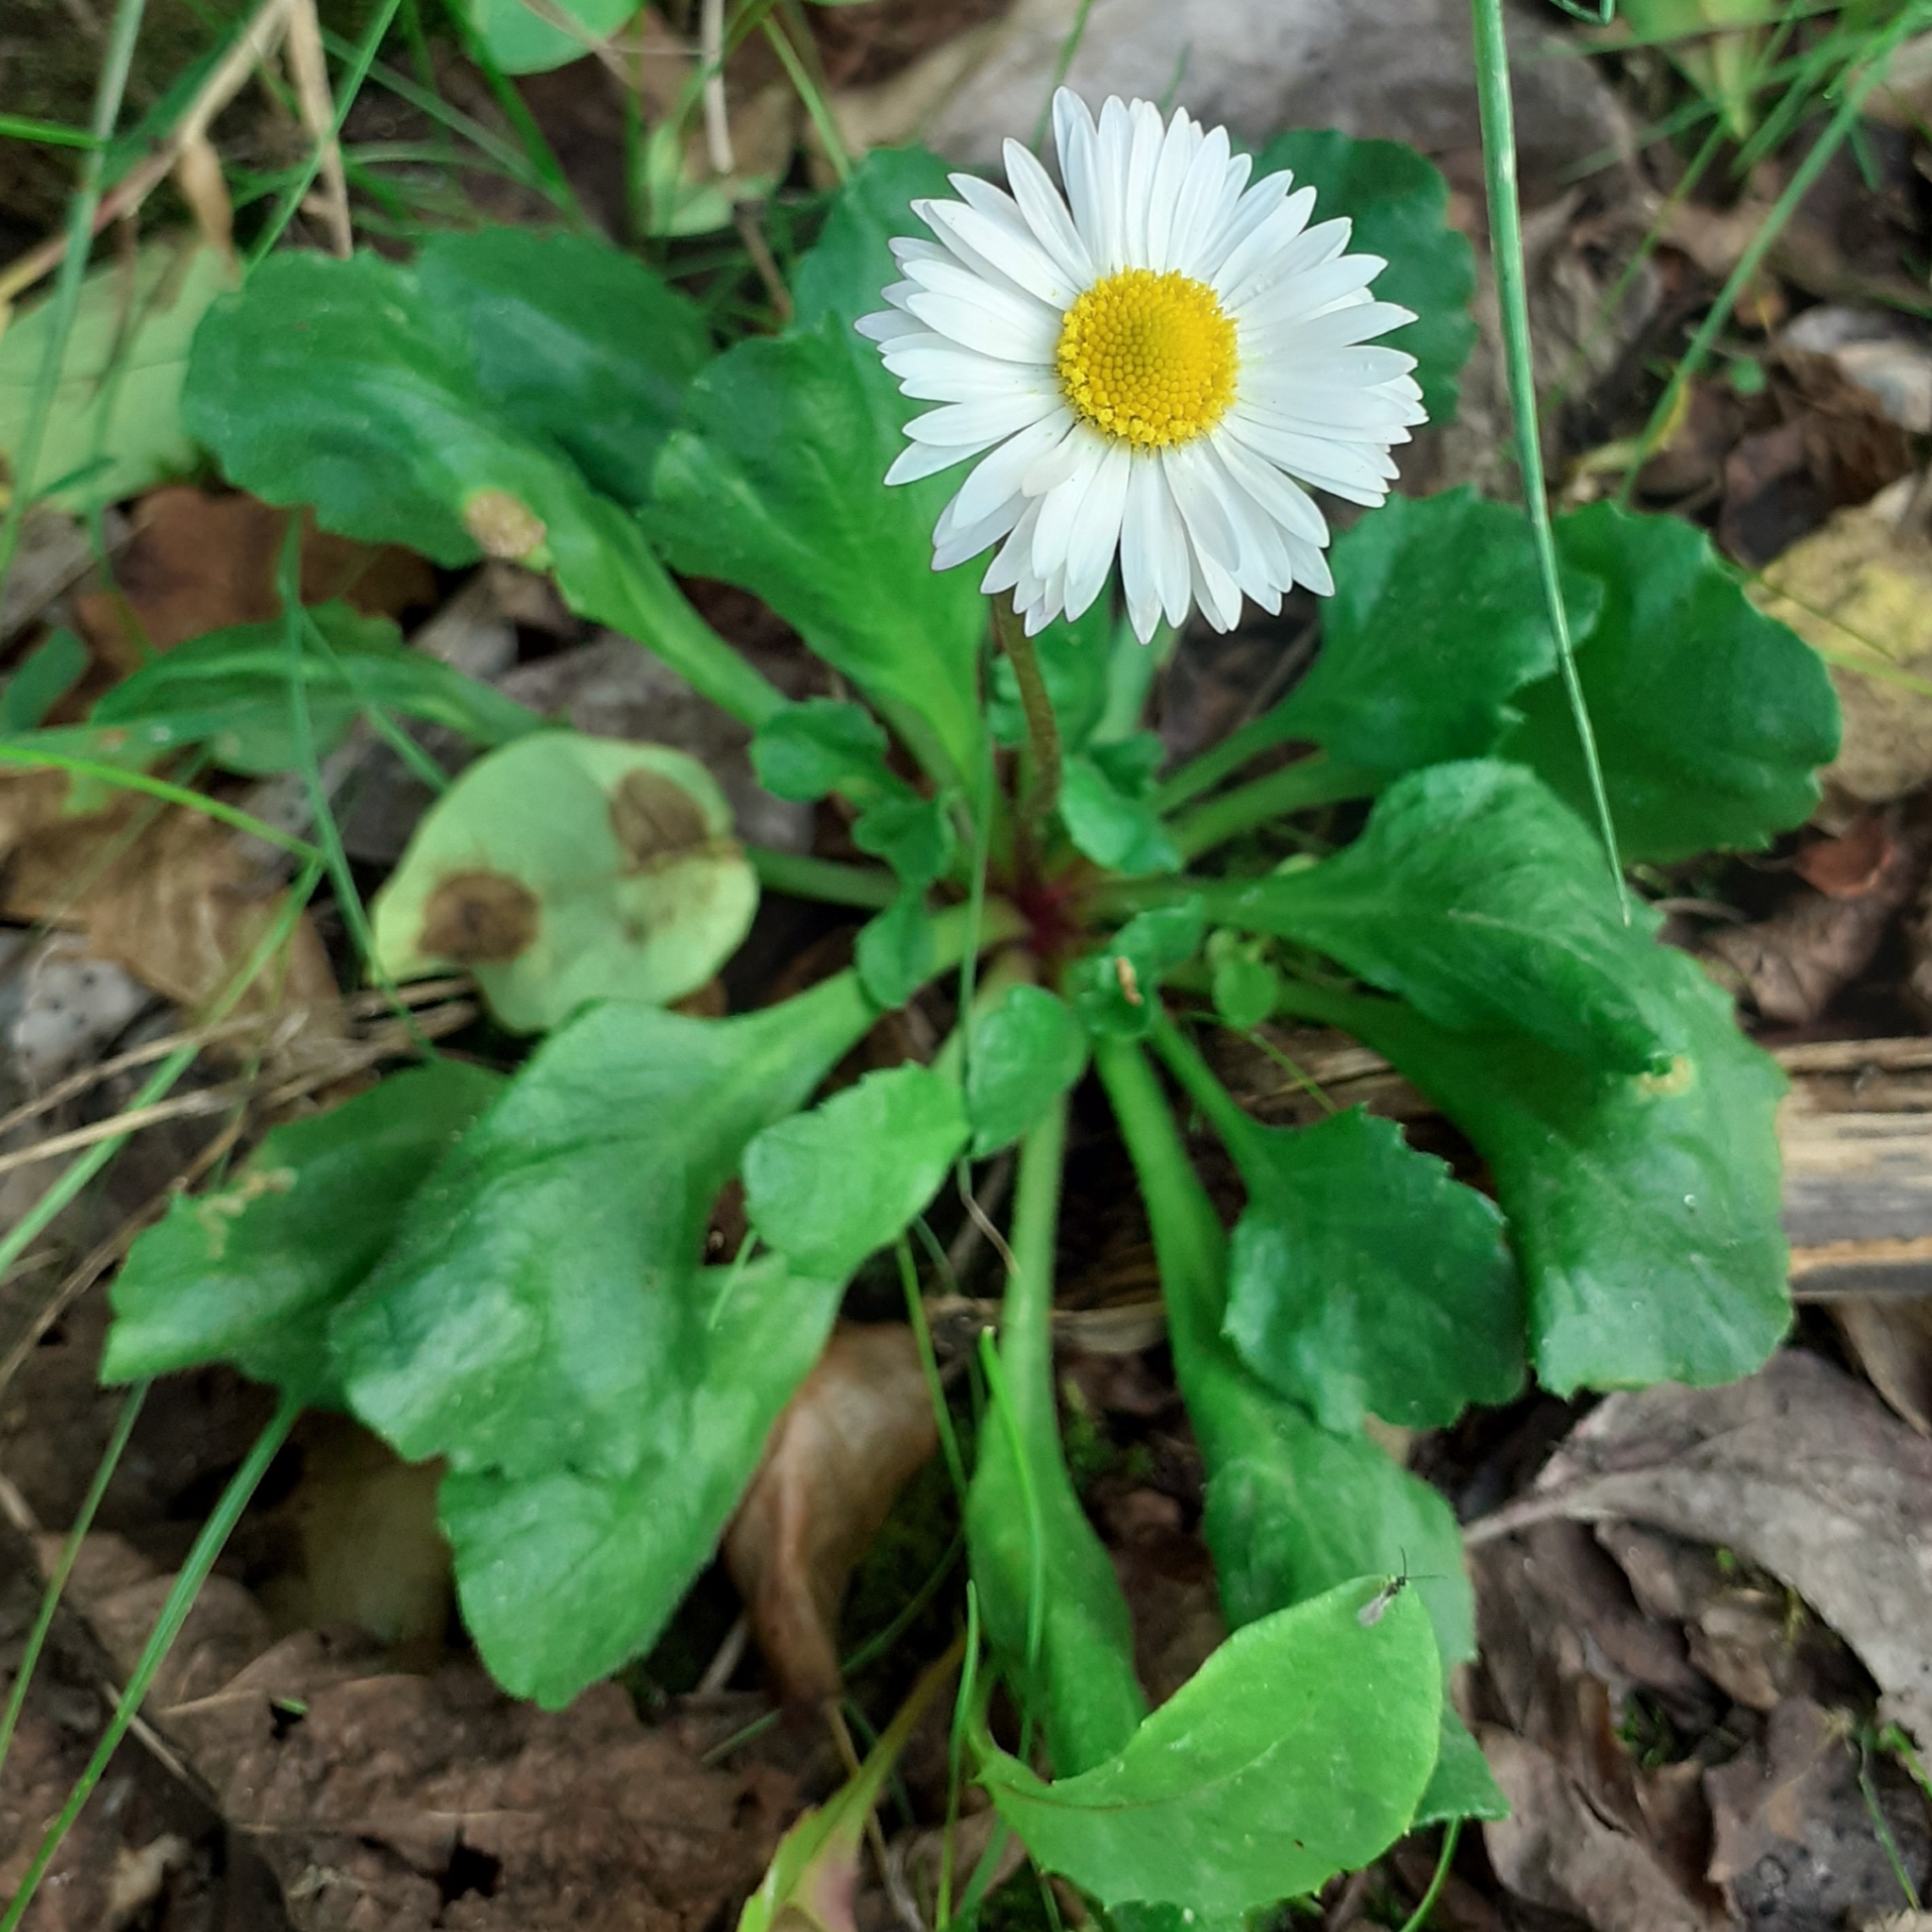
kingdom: Plantae
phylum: Tracheophyta
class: Magnoliopsida
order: Asterales
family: Asteraceae
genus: Bellis
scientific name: Bellis perennis
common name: Lawndaisy
